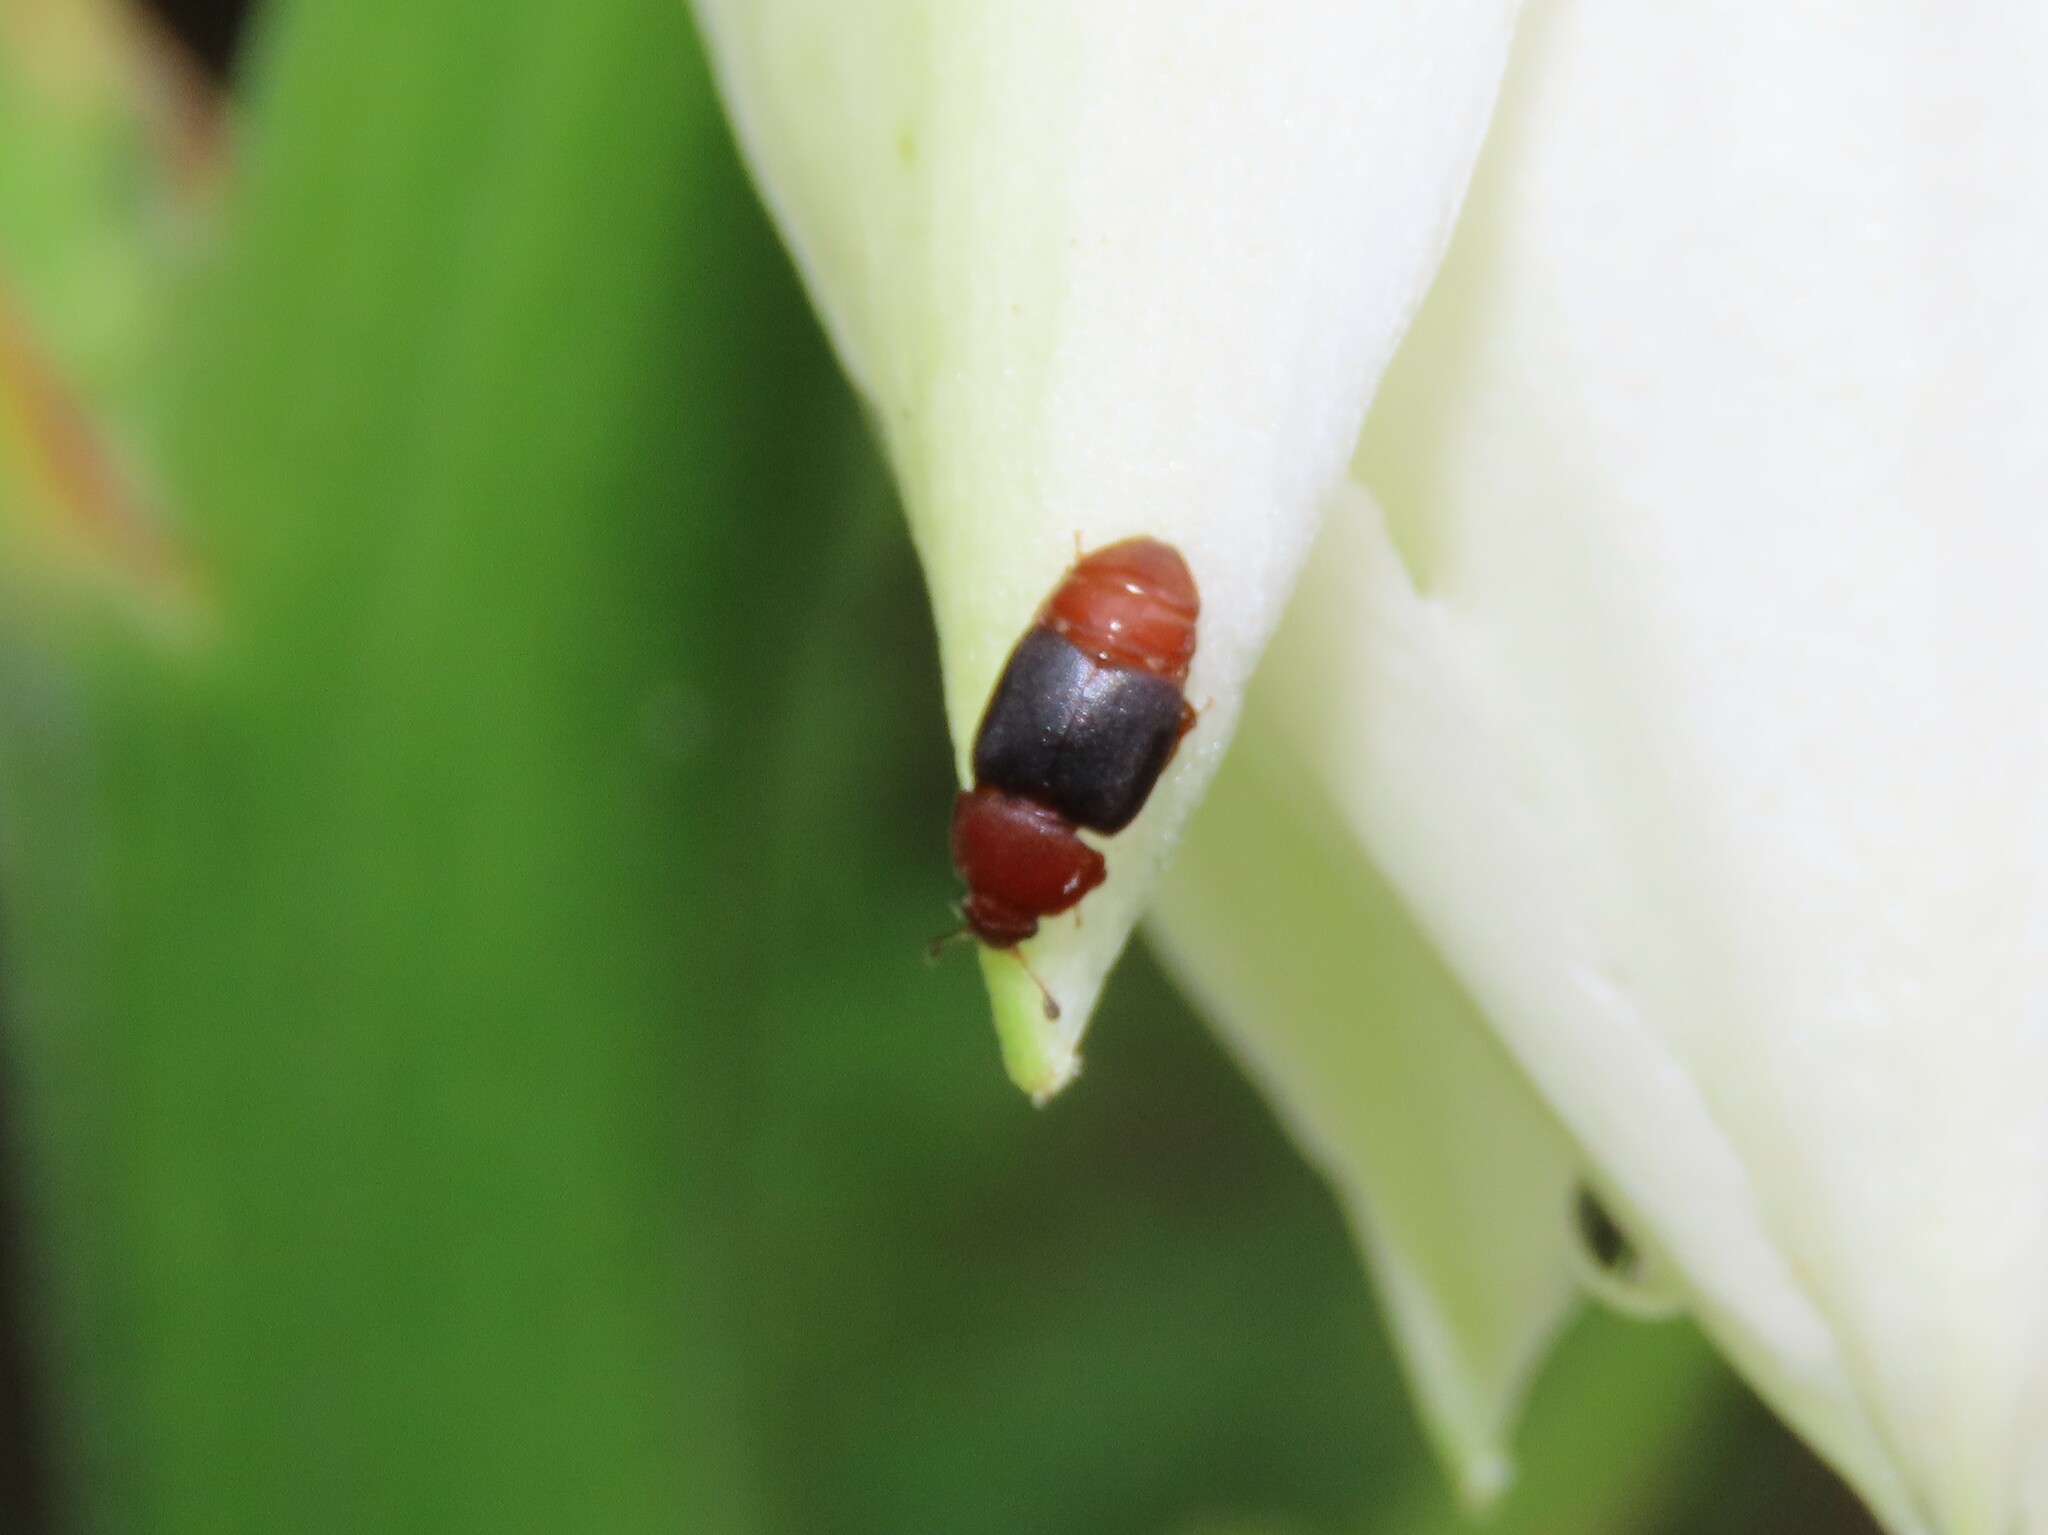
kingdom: Animalia
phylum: Arthropoda
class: Insecta
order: Coleoptera
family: Nitidulidae
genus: Carpophilus
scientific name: Carpophilus
